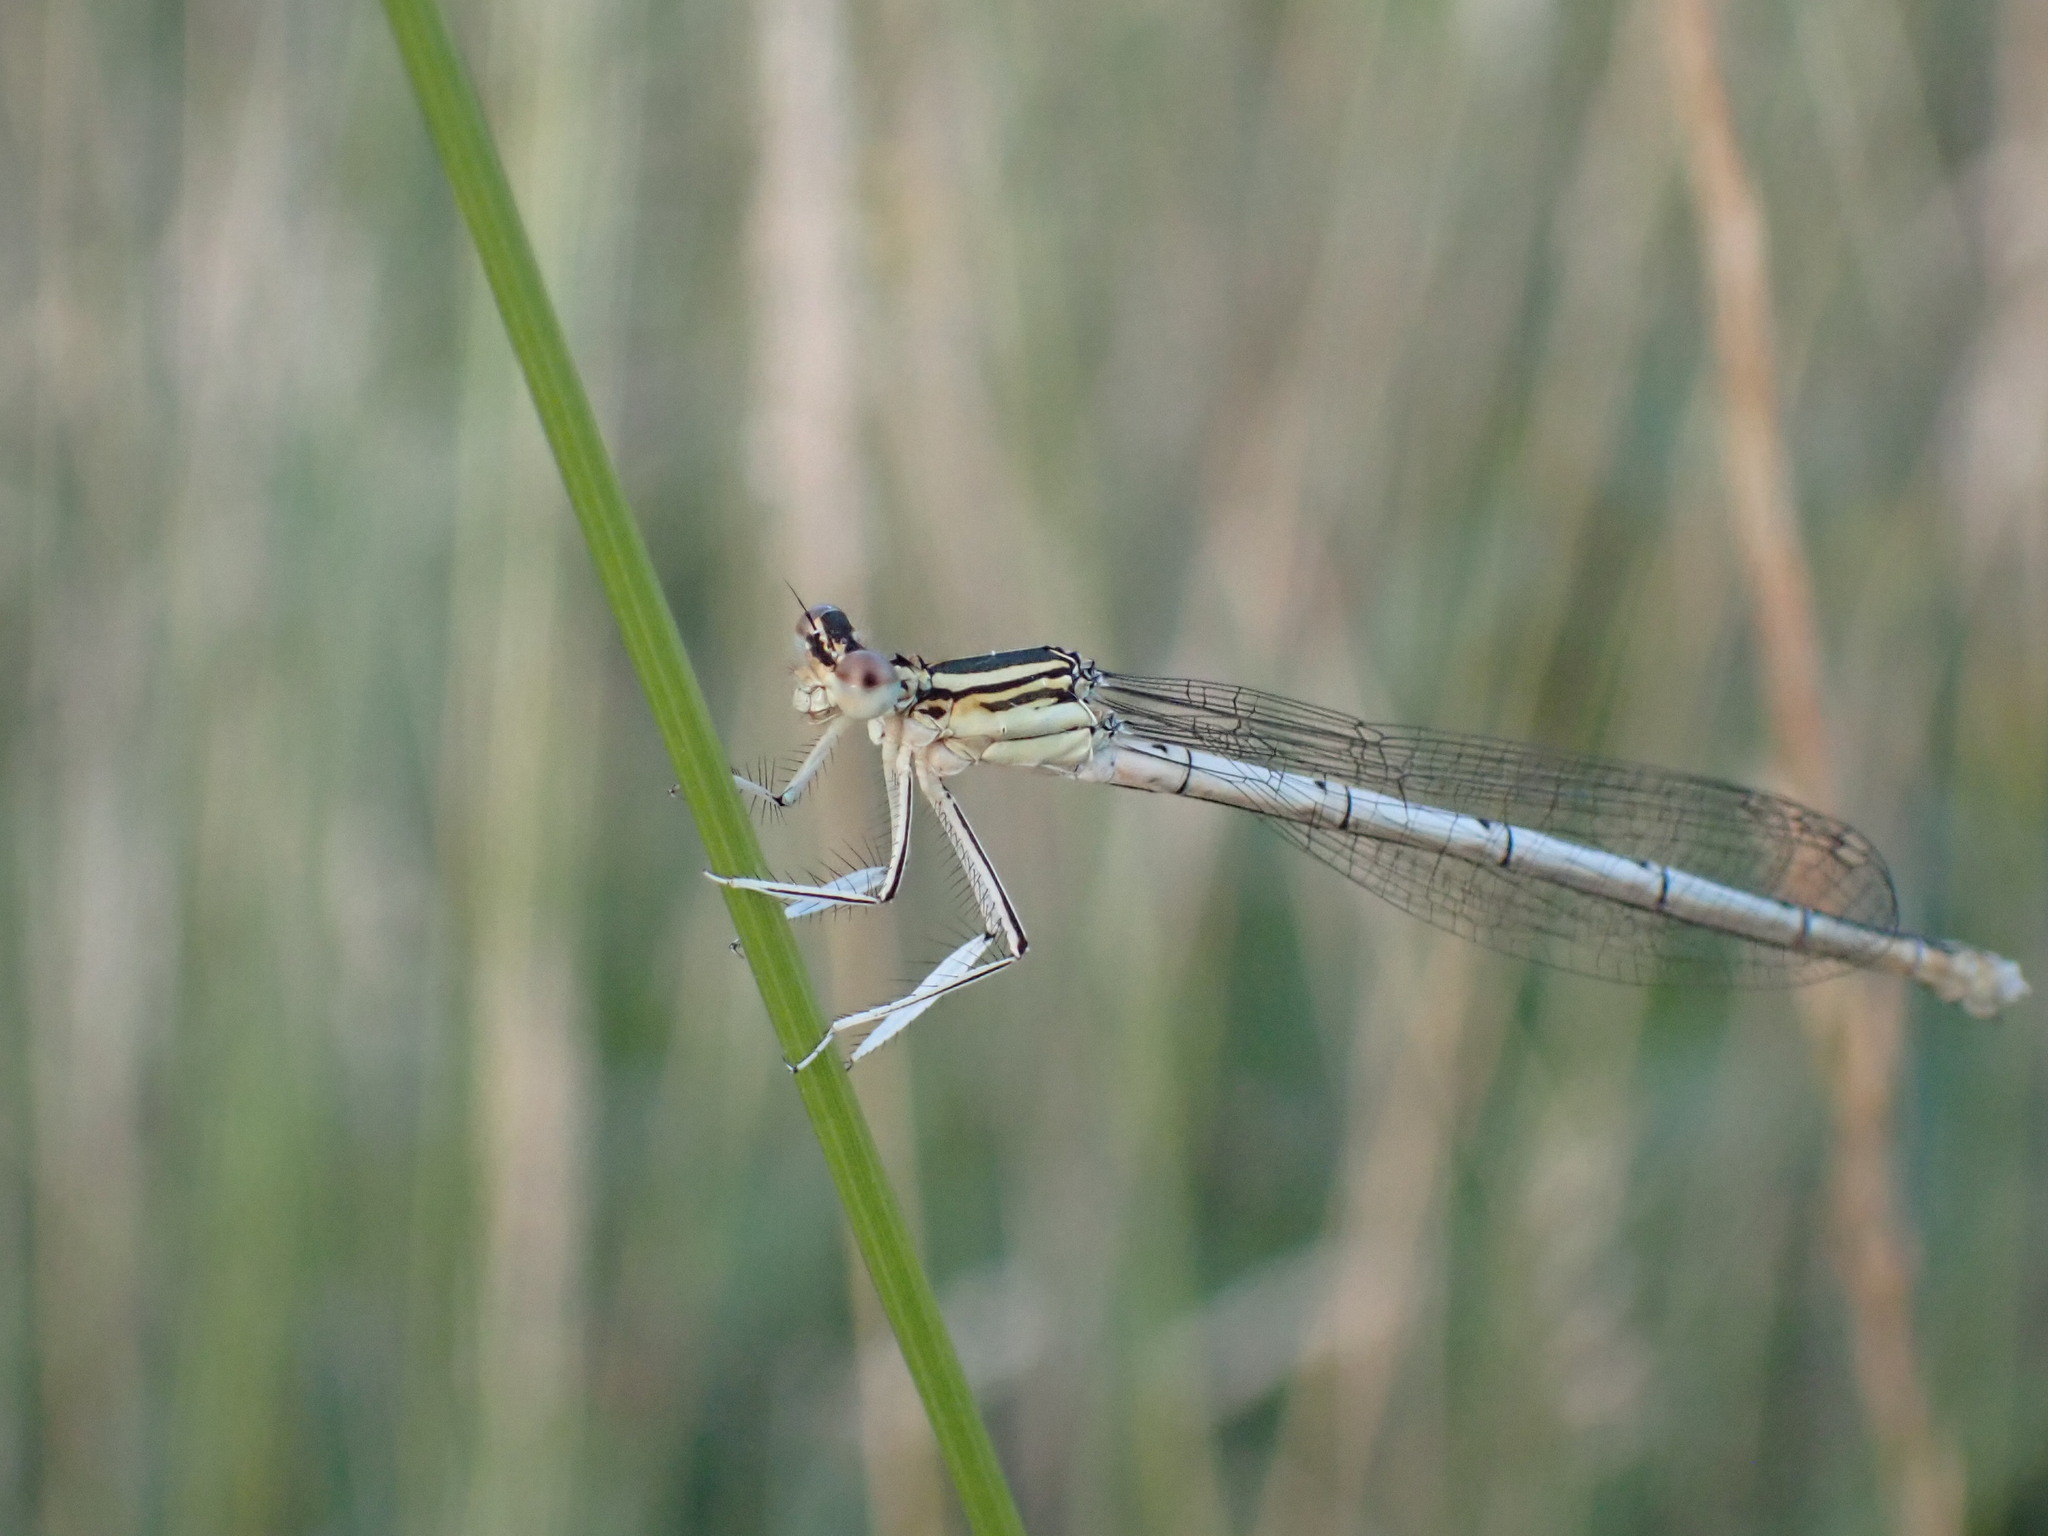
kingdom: Animalia
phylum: Arthropoda
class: Insecta
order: Odonata
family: Platycnemididae
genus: Platycnemis
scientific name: Platycnemis pennipes
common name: White-legged damselfly
